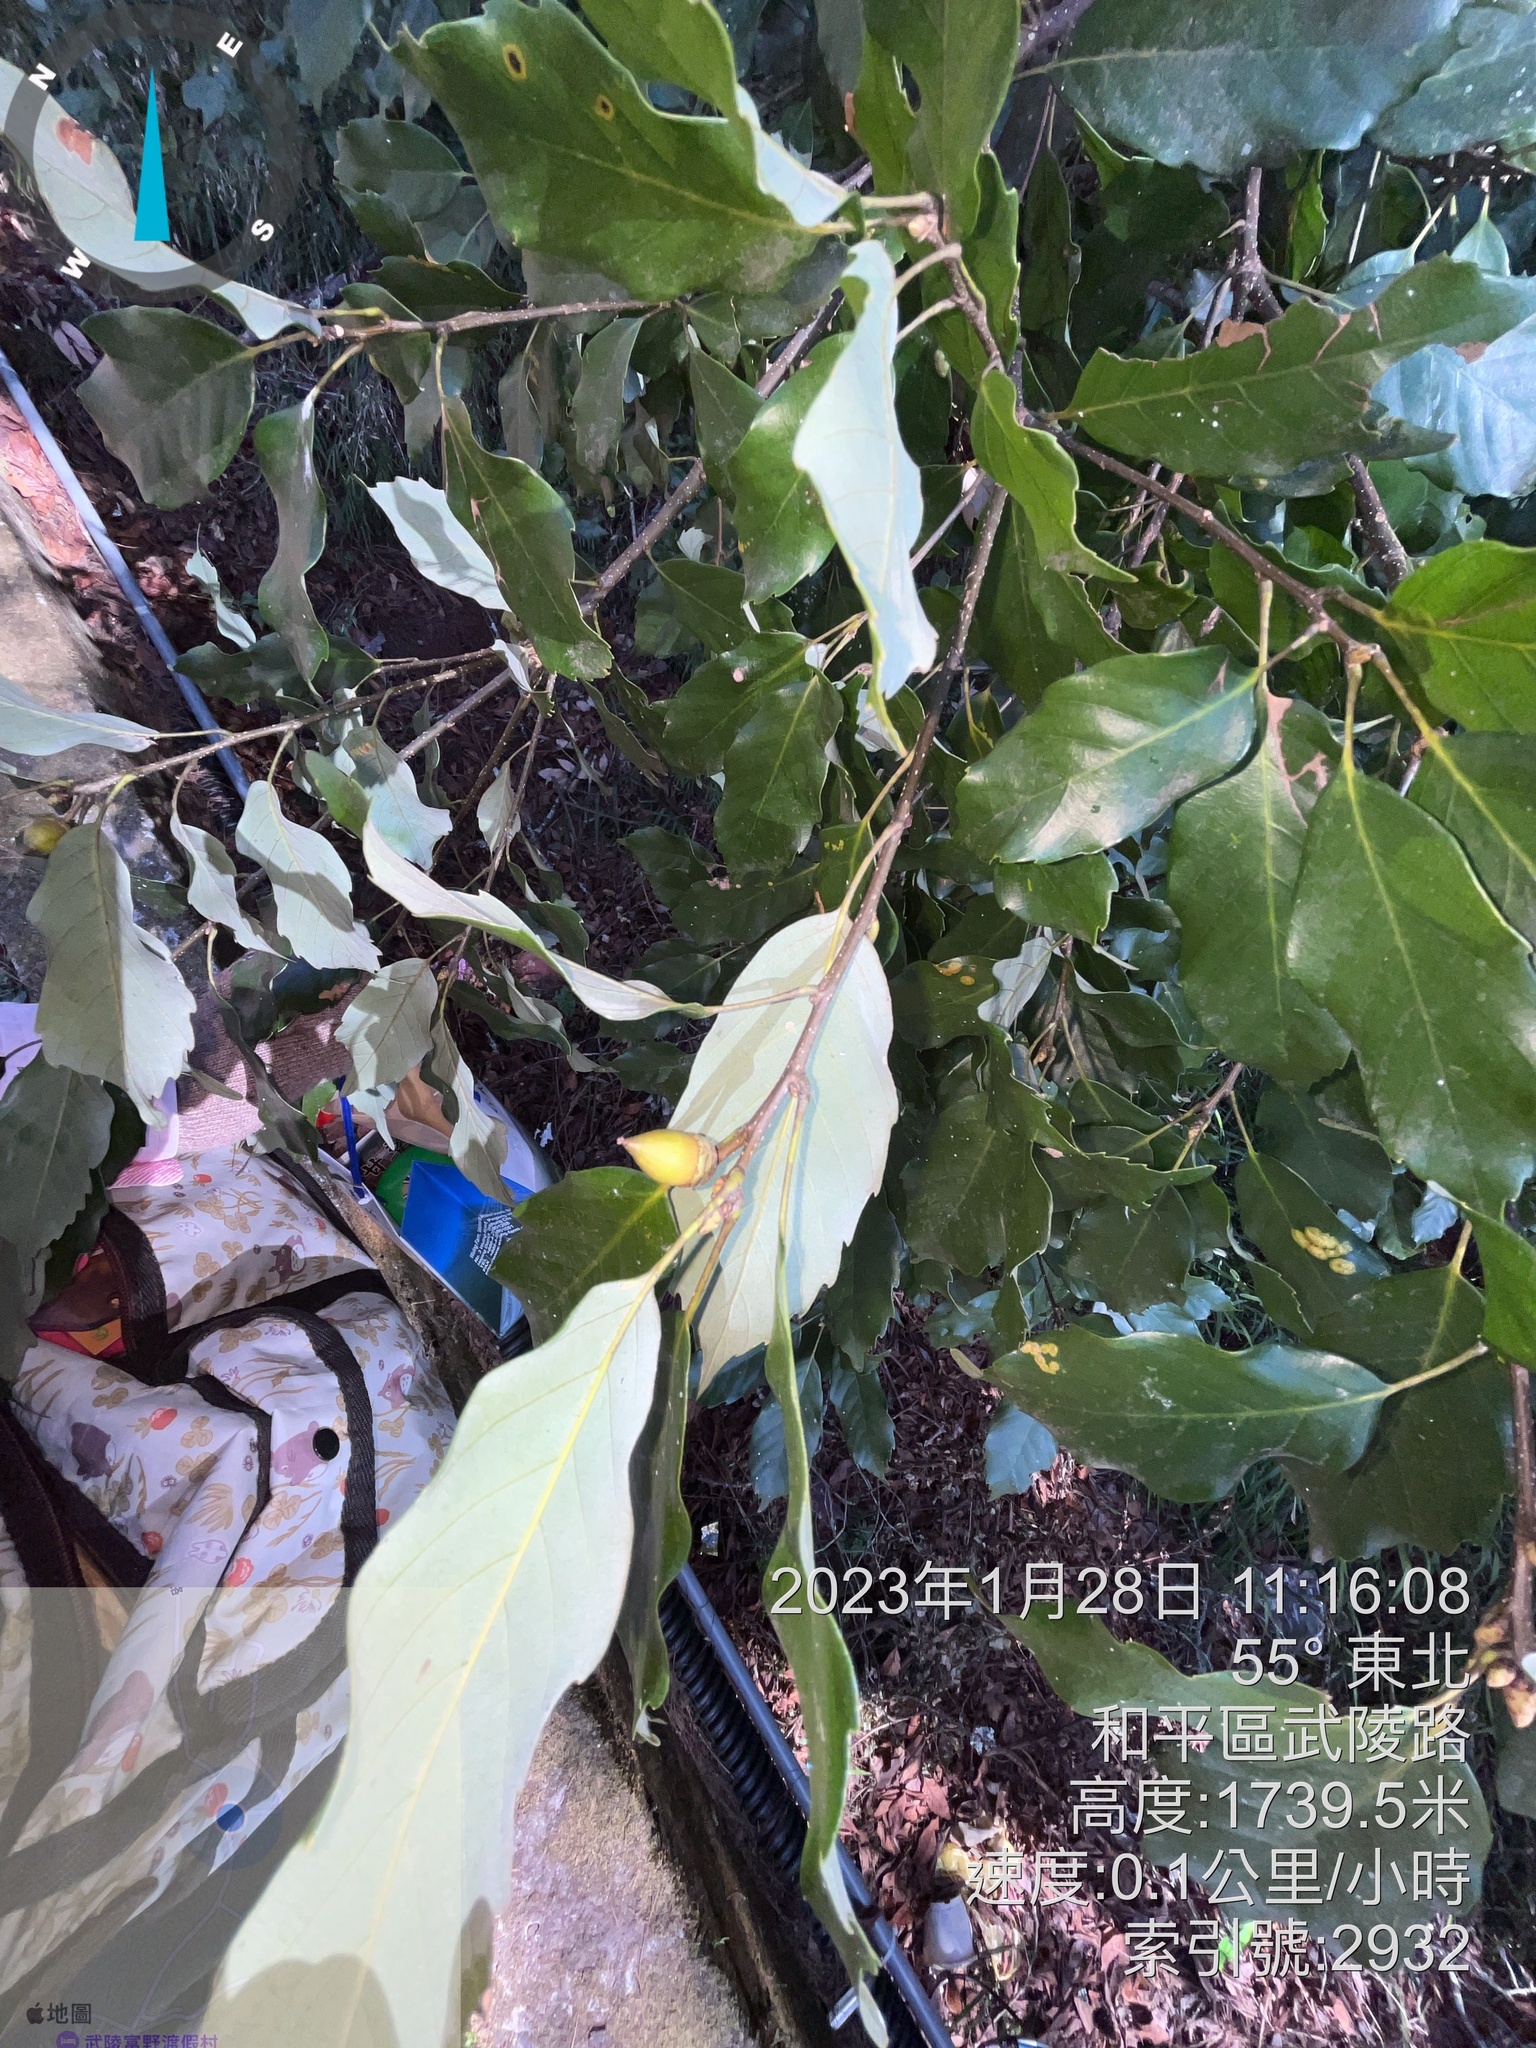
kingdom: Plantae
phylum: Tracheophyta
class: Magnoliopsida
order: Fagales
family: Fagaceae
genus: Quercus
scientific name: Quercus glauca
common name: Ring-cup oak
